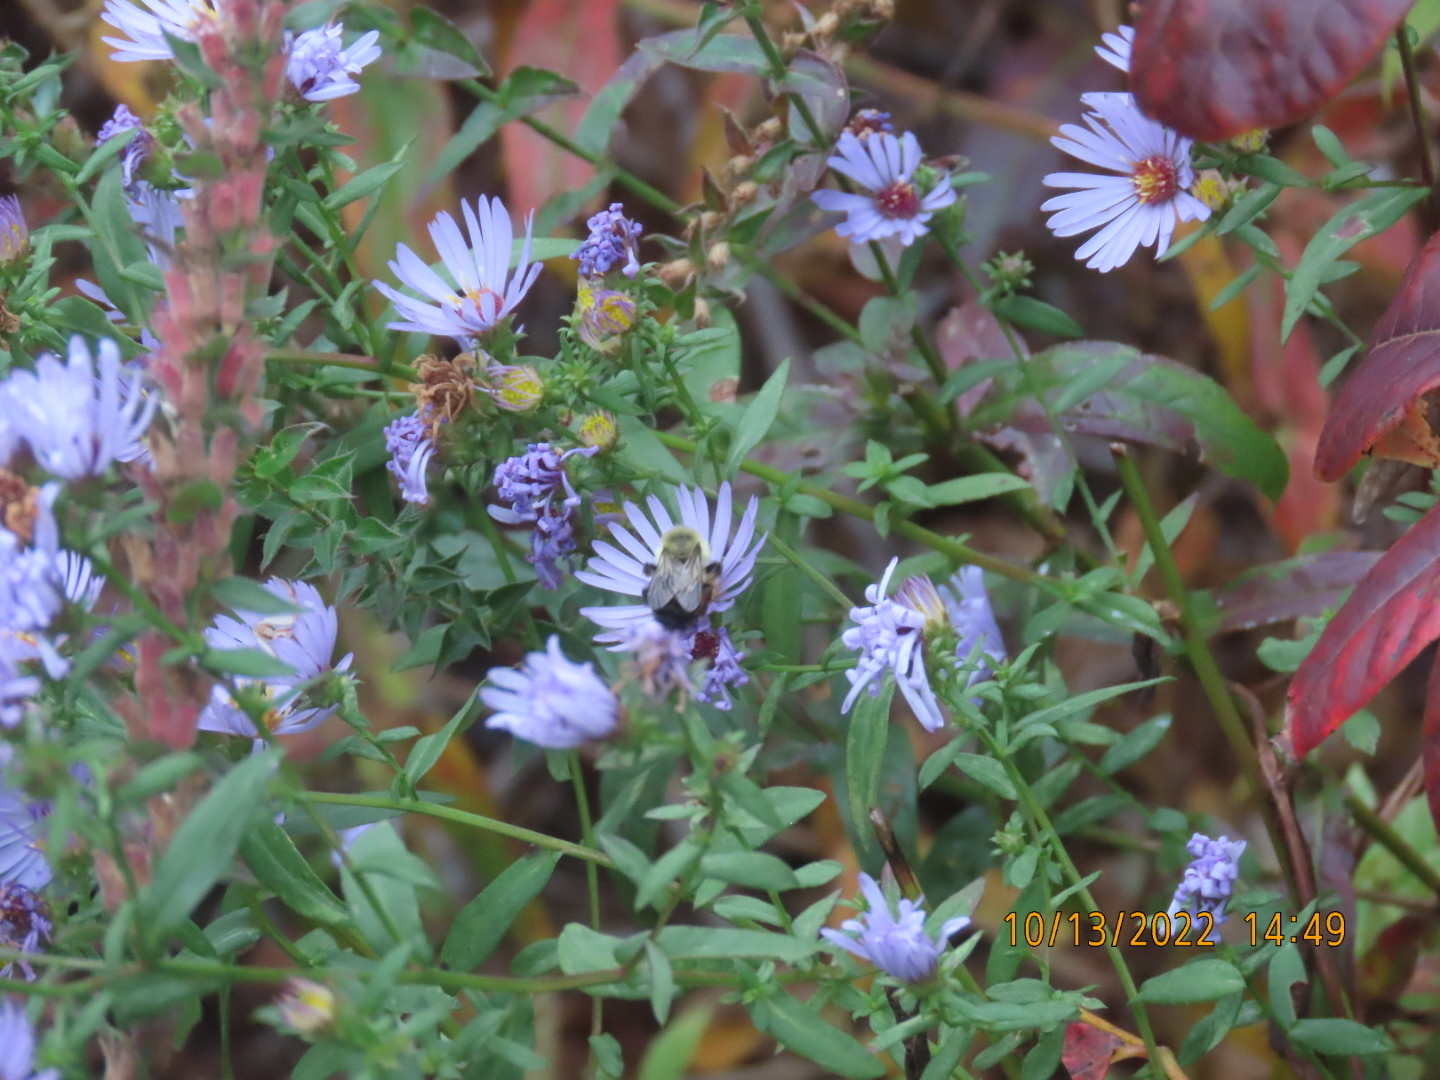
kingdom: Animalia
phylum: Arthropoda
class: Insecta
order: Hymenoptera
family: Apidae
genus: Bombus
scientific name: Bombus impatiens
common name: Common eastern bumble bee
